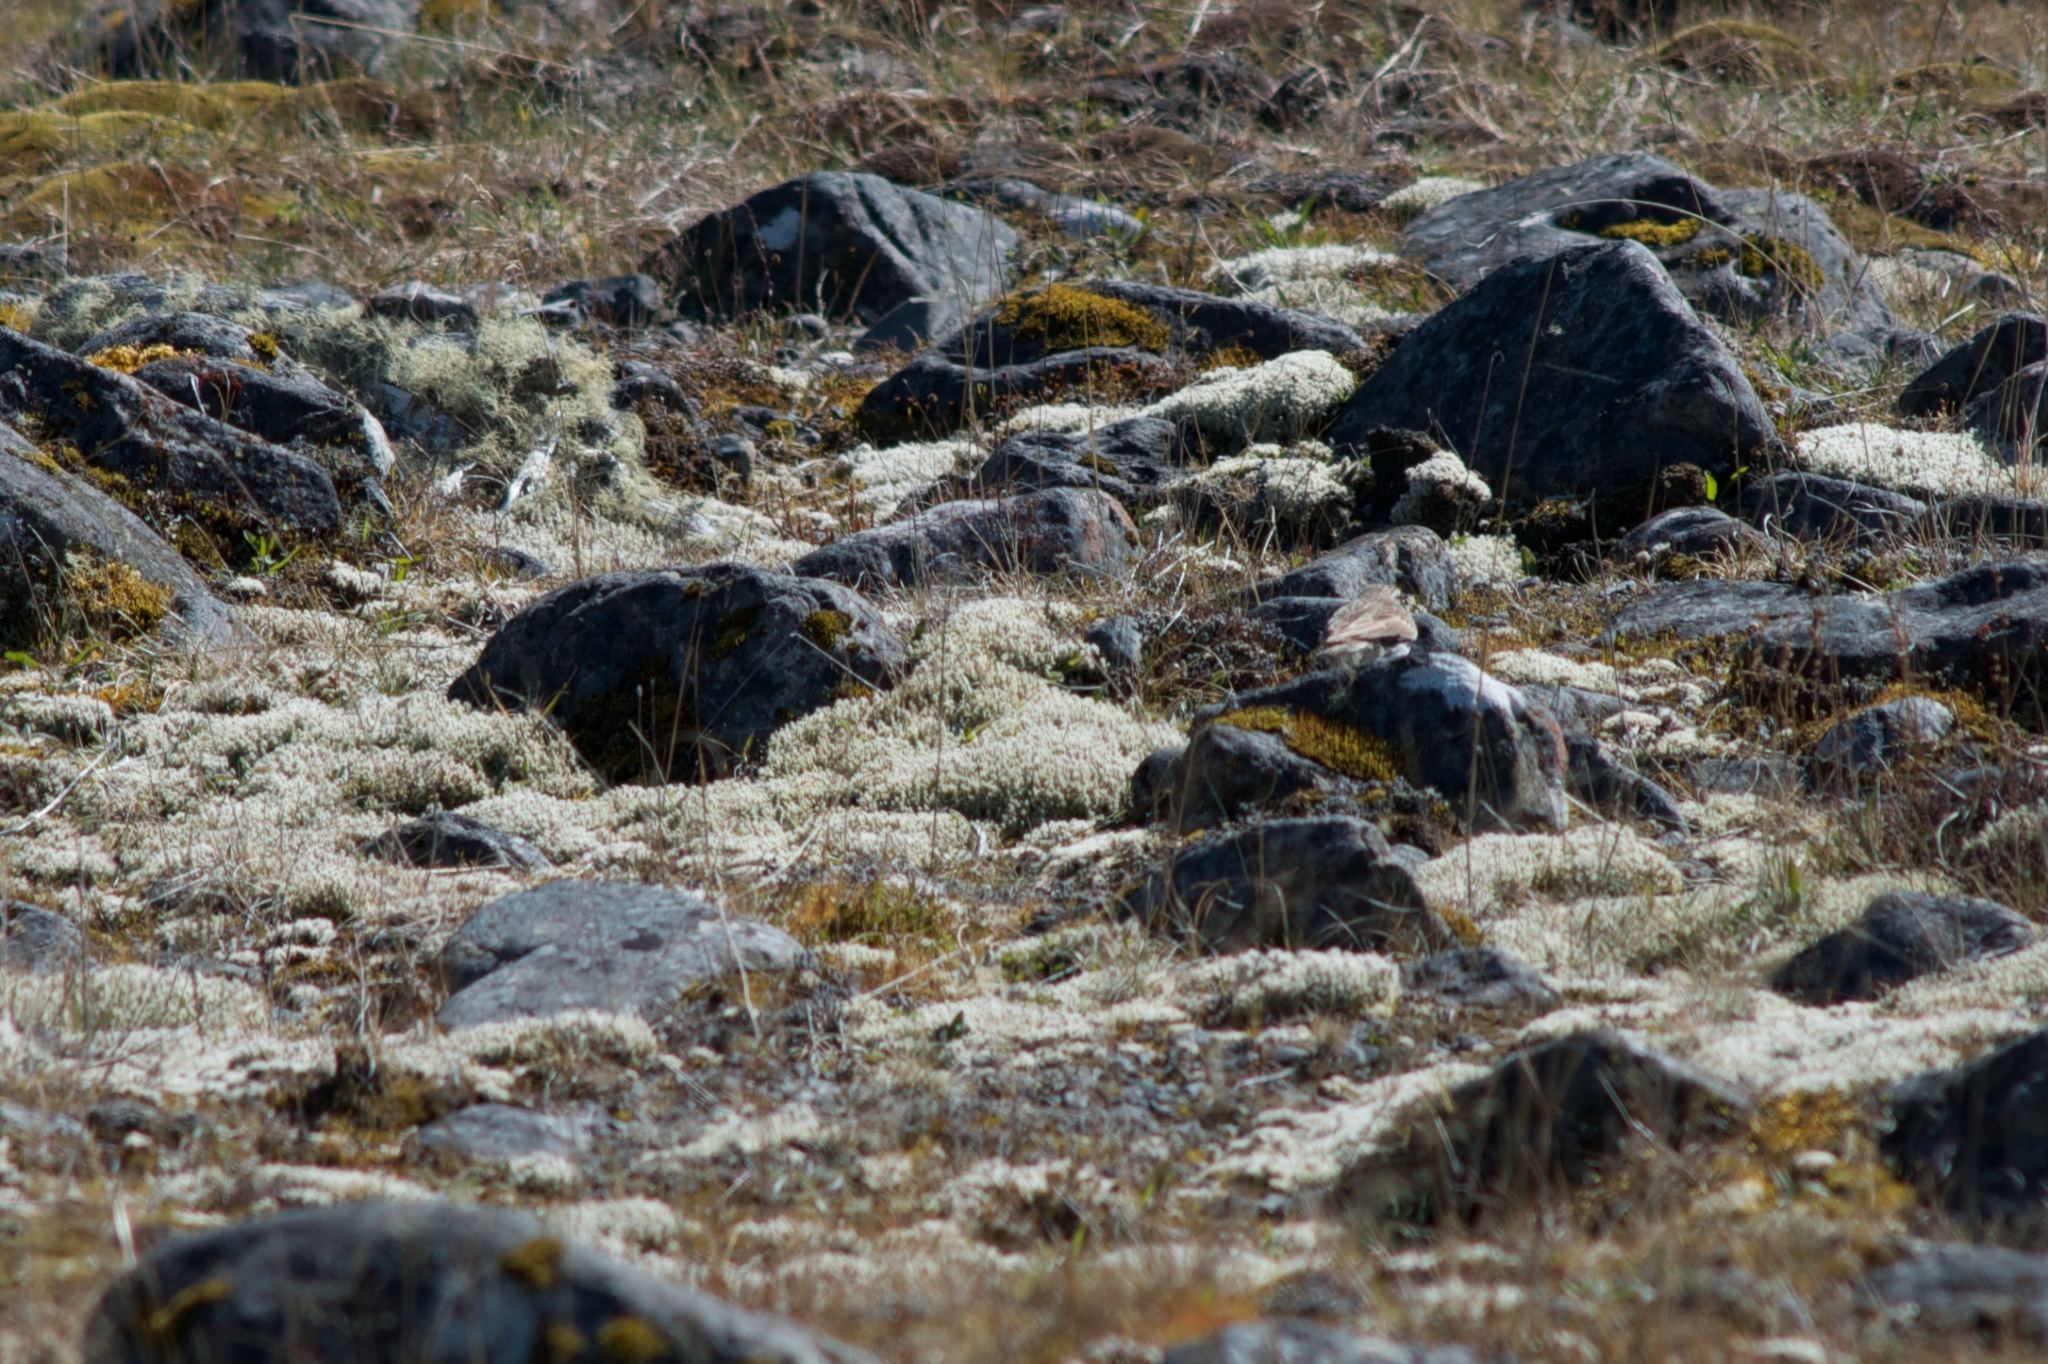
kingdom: Animalia
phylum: Chordata
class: Aves
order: Passeriformes
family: Motacillidae
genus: Anthus
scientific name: Anthus novaeseelandiae
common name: New zealand pipit
